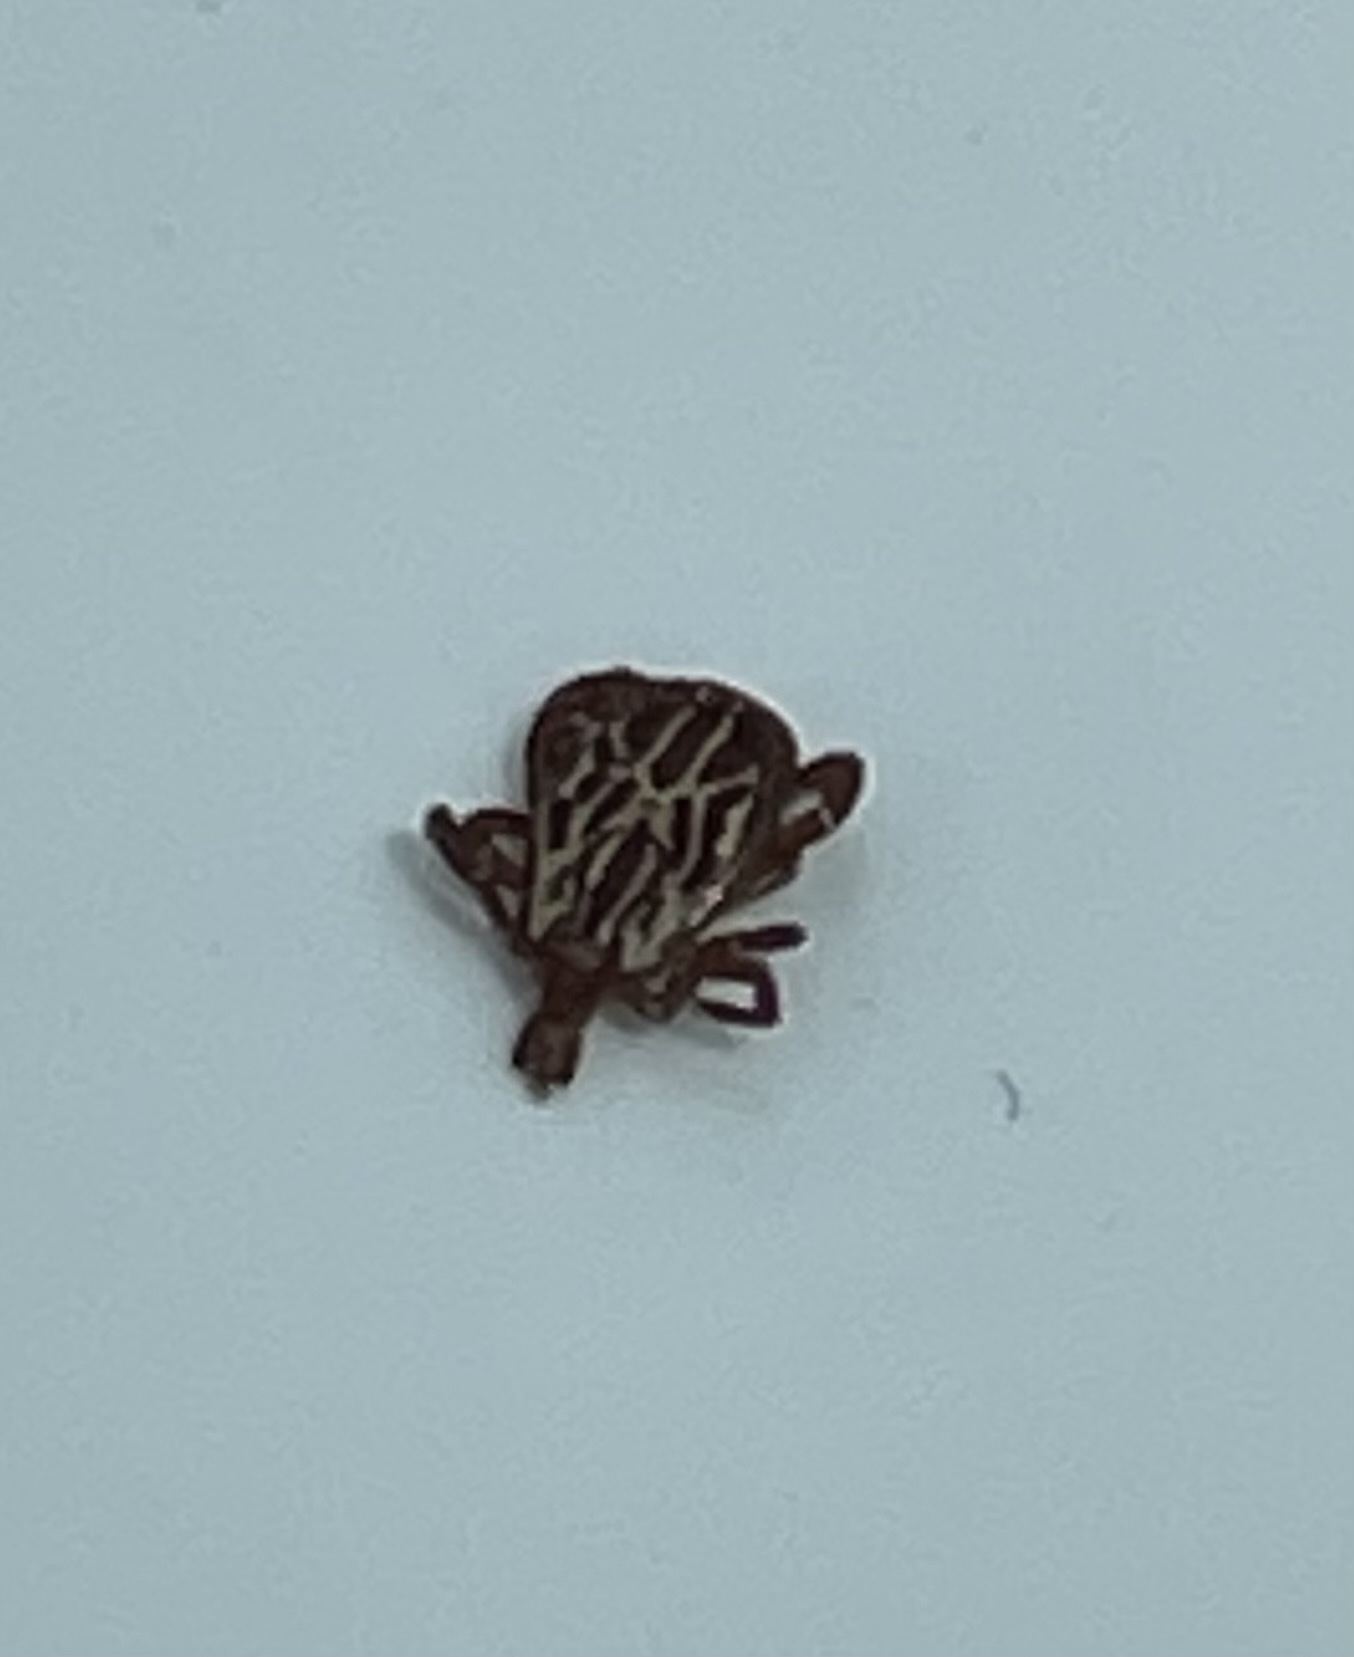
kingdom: Animalia
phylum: Arthropoda
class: Arachnida
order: Ixodida
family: Ixodidae
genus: Amblyomma
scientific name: Amblyomma maculatum
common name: Gulf coast tick
